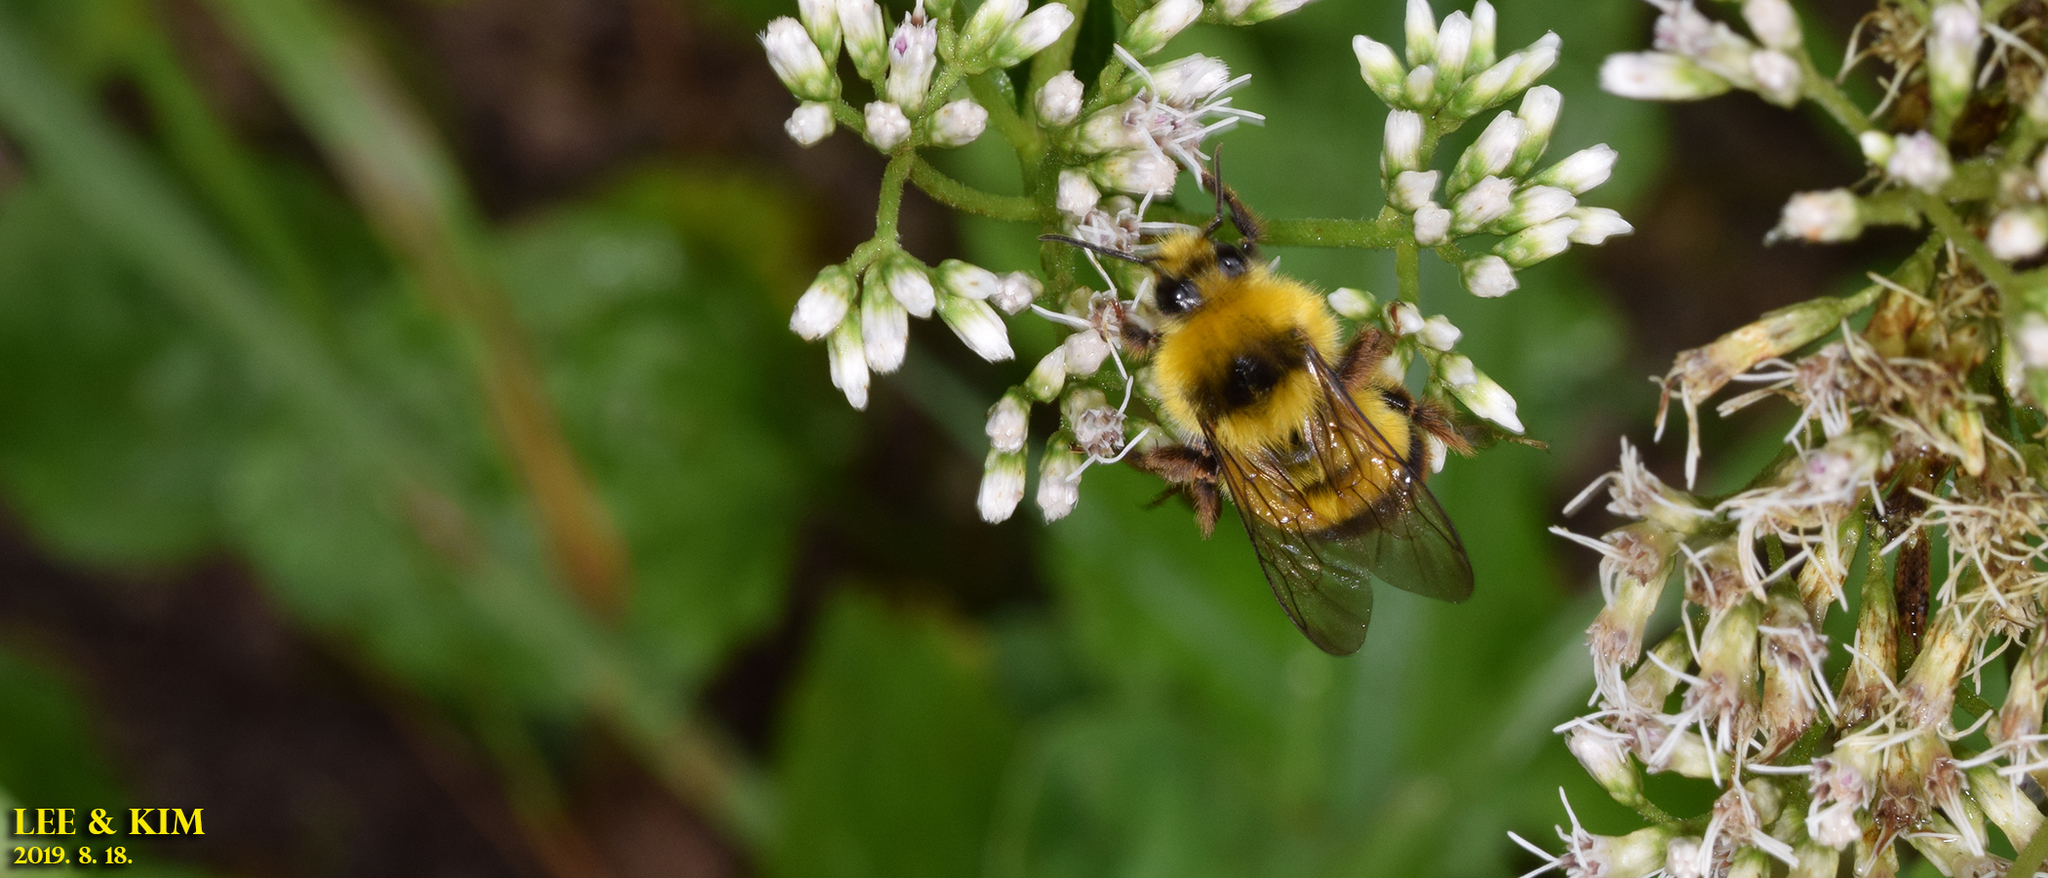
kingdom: Animalia
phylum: Arthropoda
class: Insecta
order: Hymenoptera
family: Apidae
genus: Bombus
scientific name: Bombus ignitus
